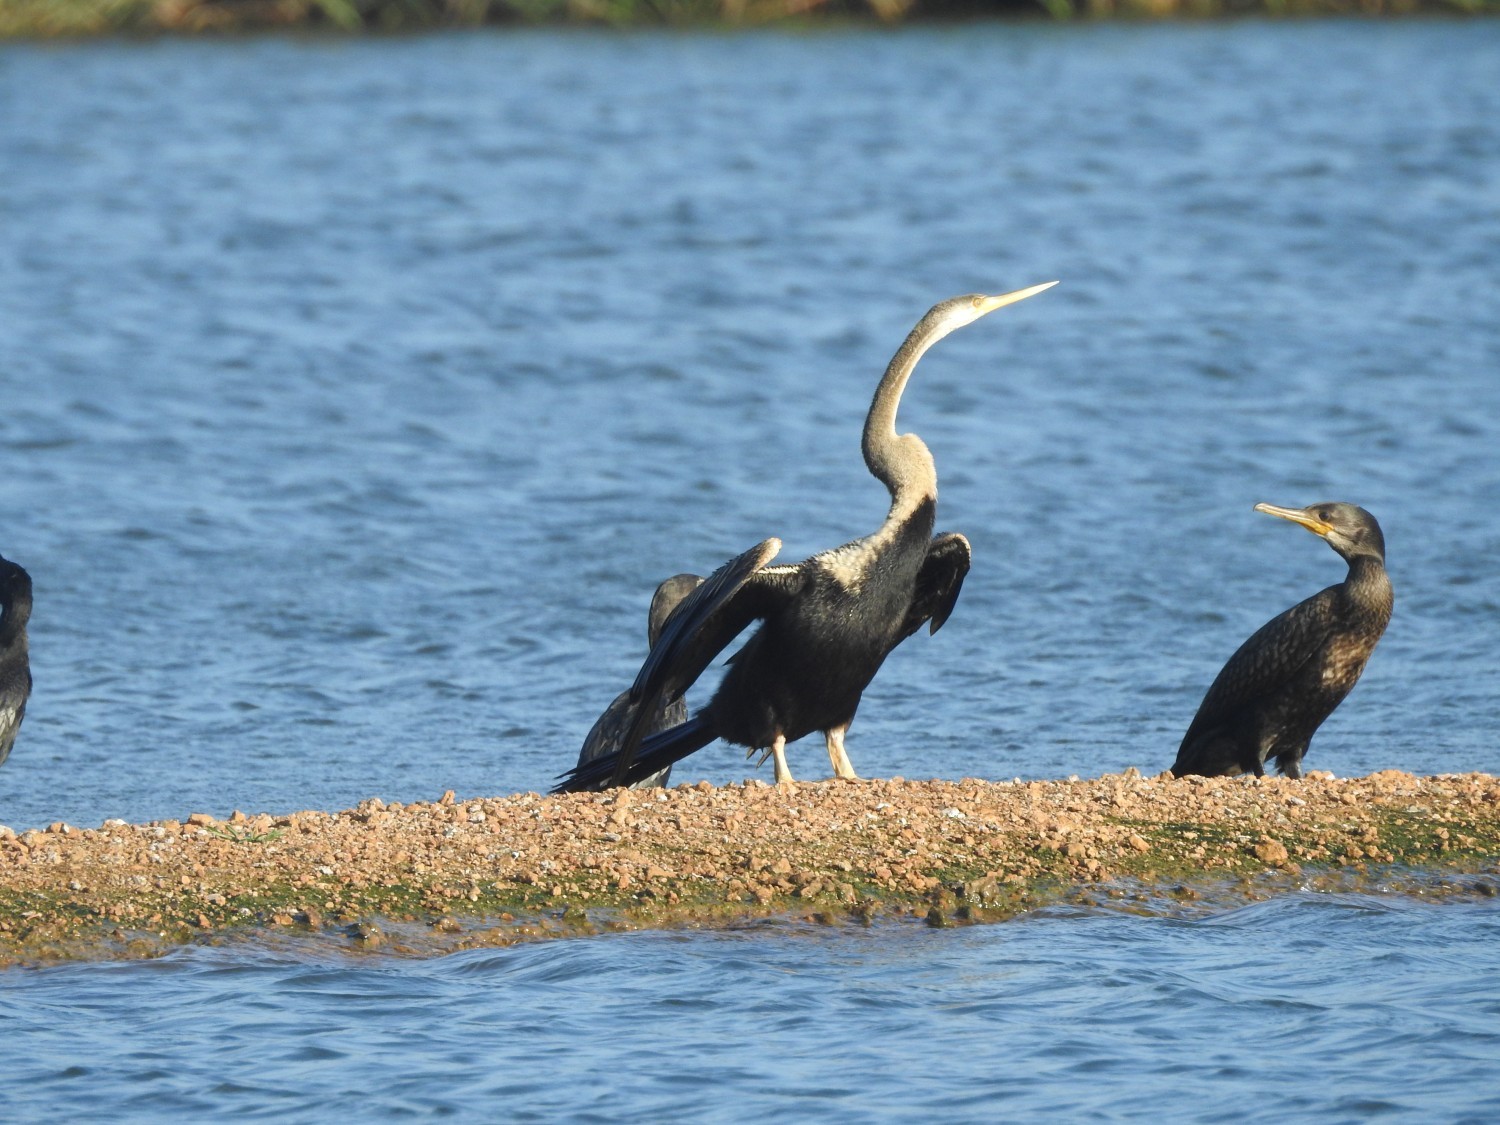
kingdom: Animalia
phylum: Chordata
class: Aves
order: Suliformes
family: Anhingidae
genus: Anhinga
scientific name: Anhinga melanogaster
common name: Oriental darter
